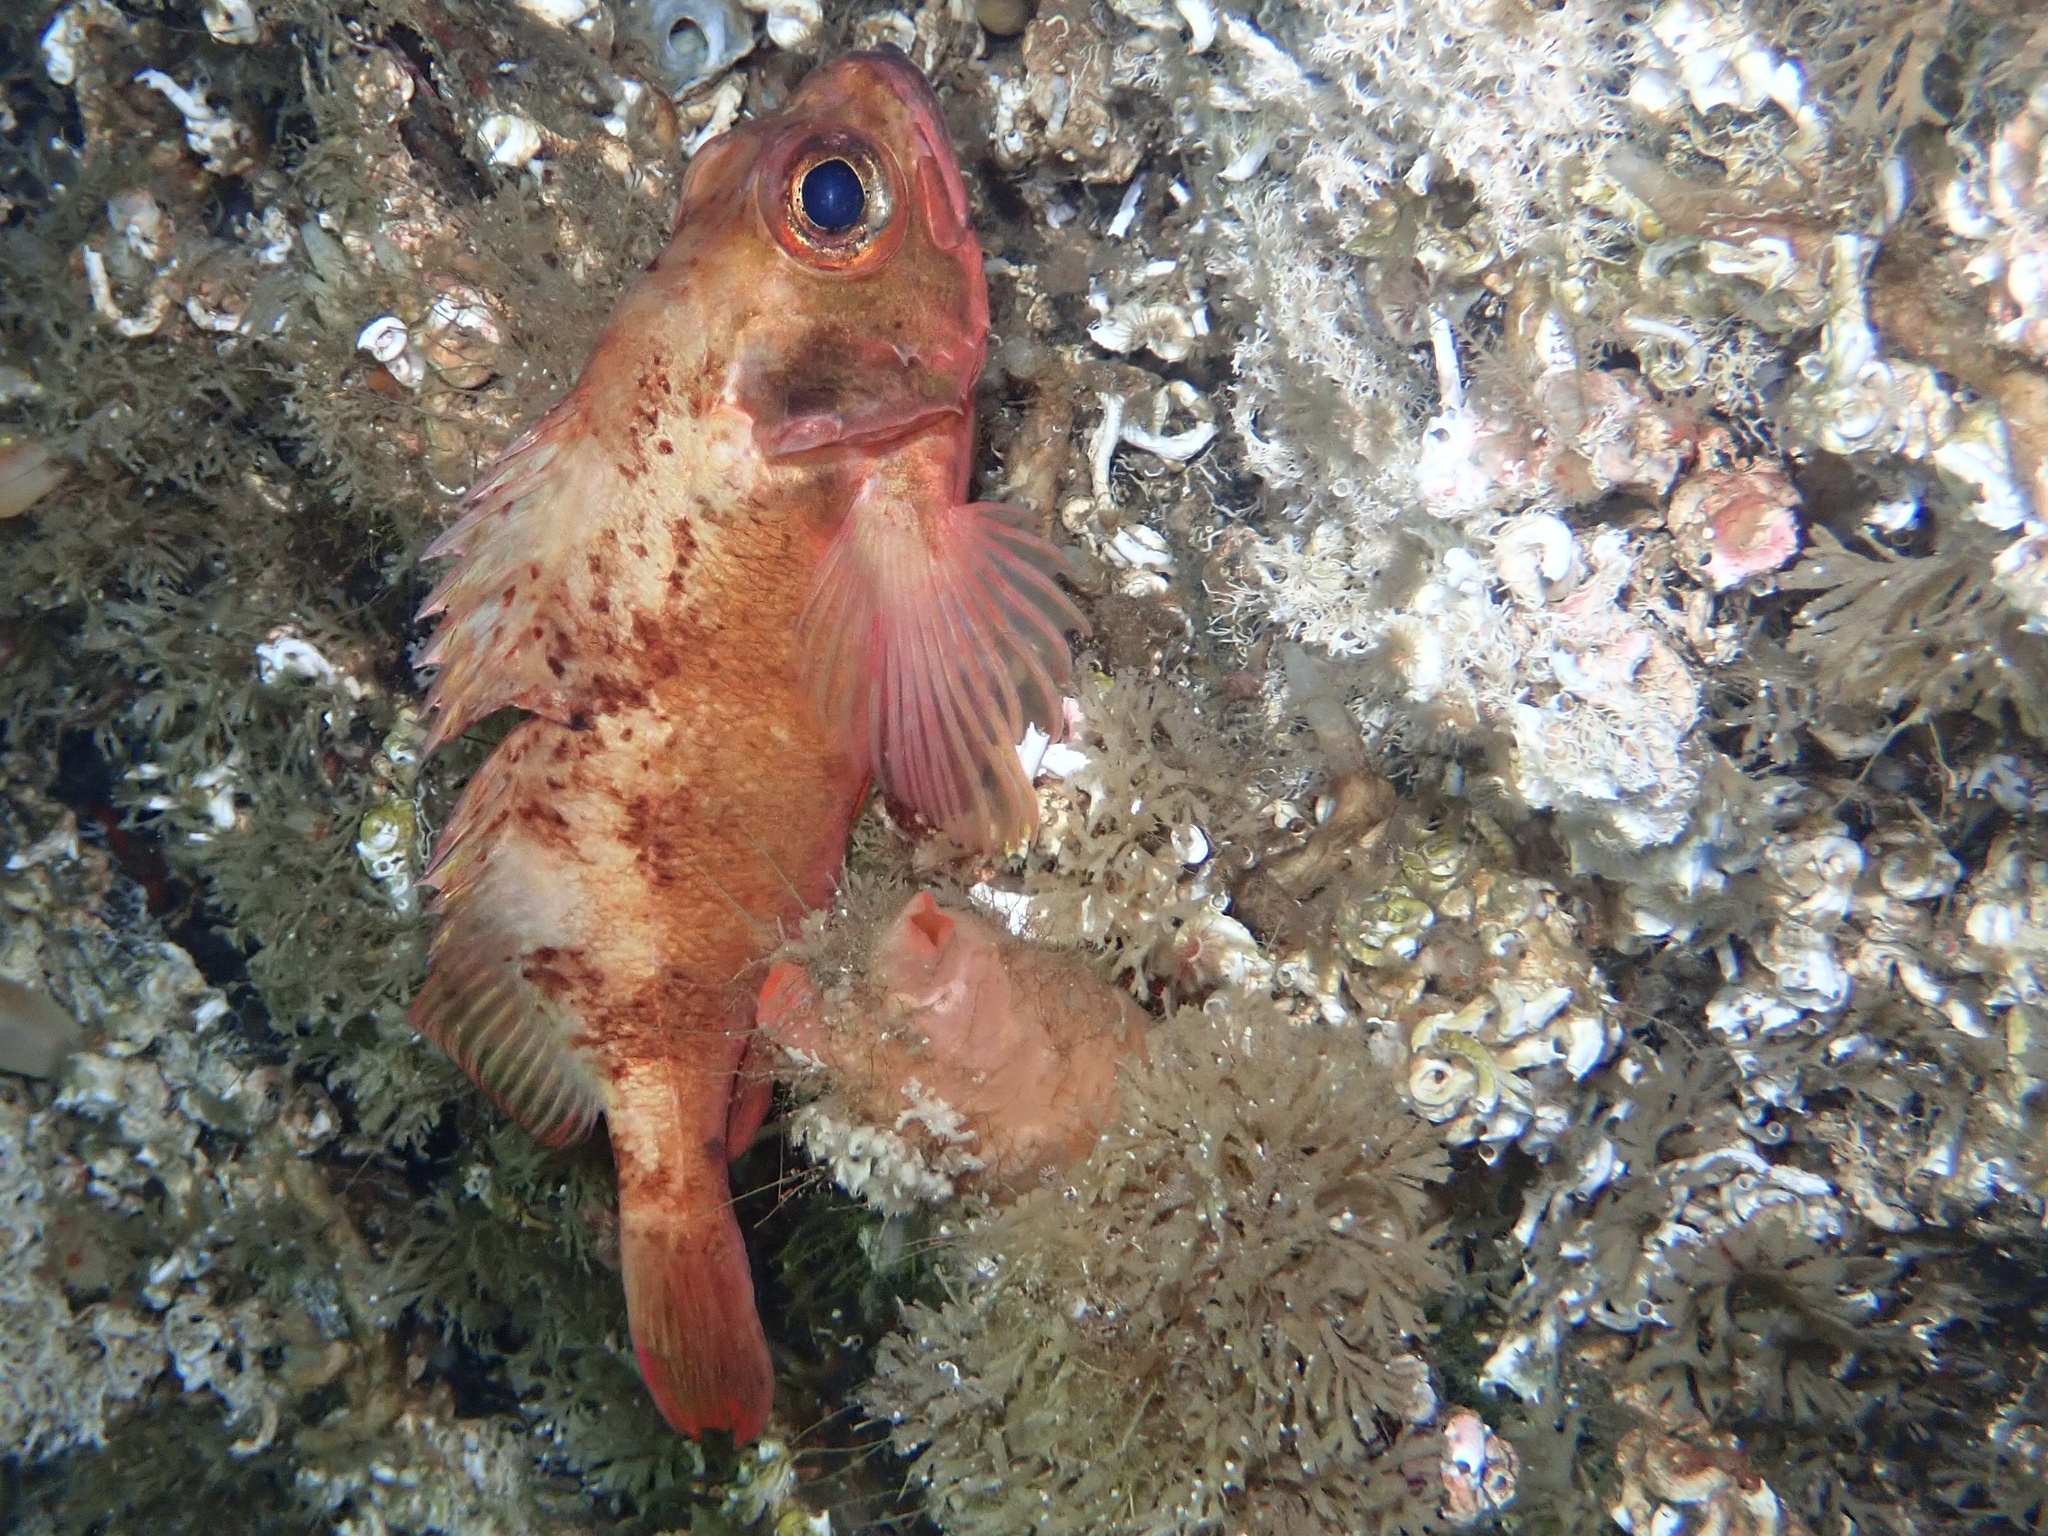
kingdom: Animalia
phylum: Chordata
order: Scorpaeniformes
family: Sebastidae
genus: Sebastes
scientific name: Sebastes viviparus
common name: Norway haddock
